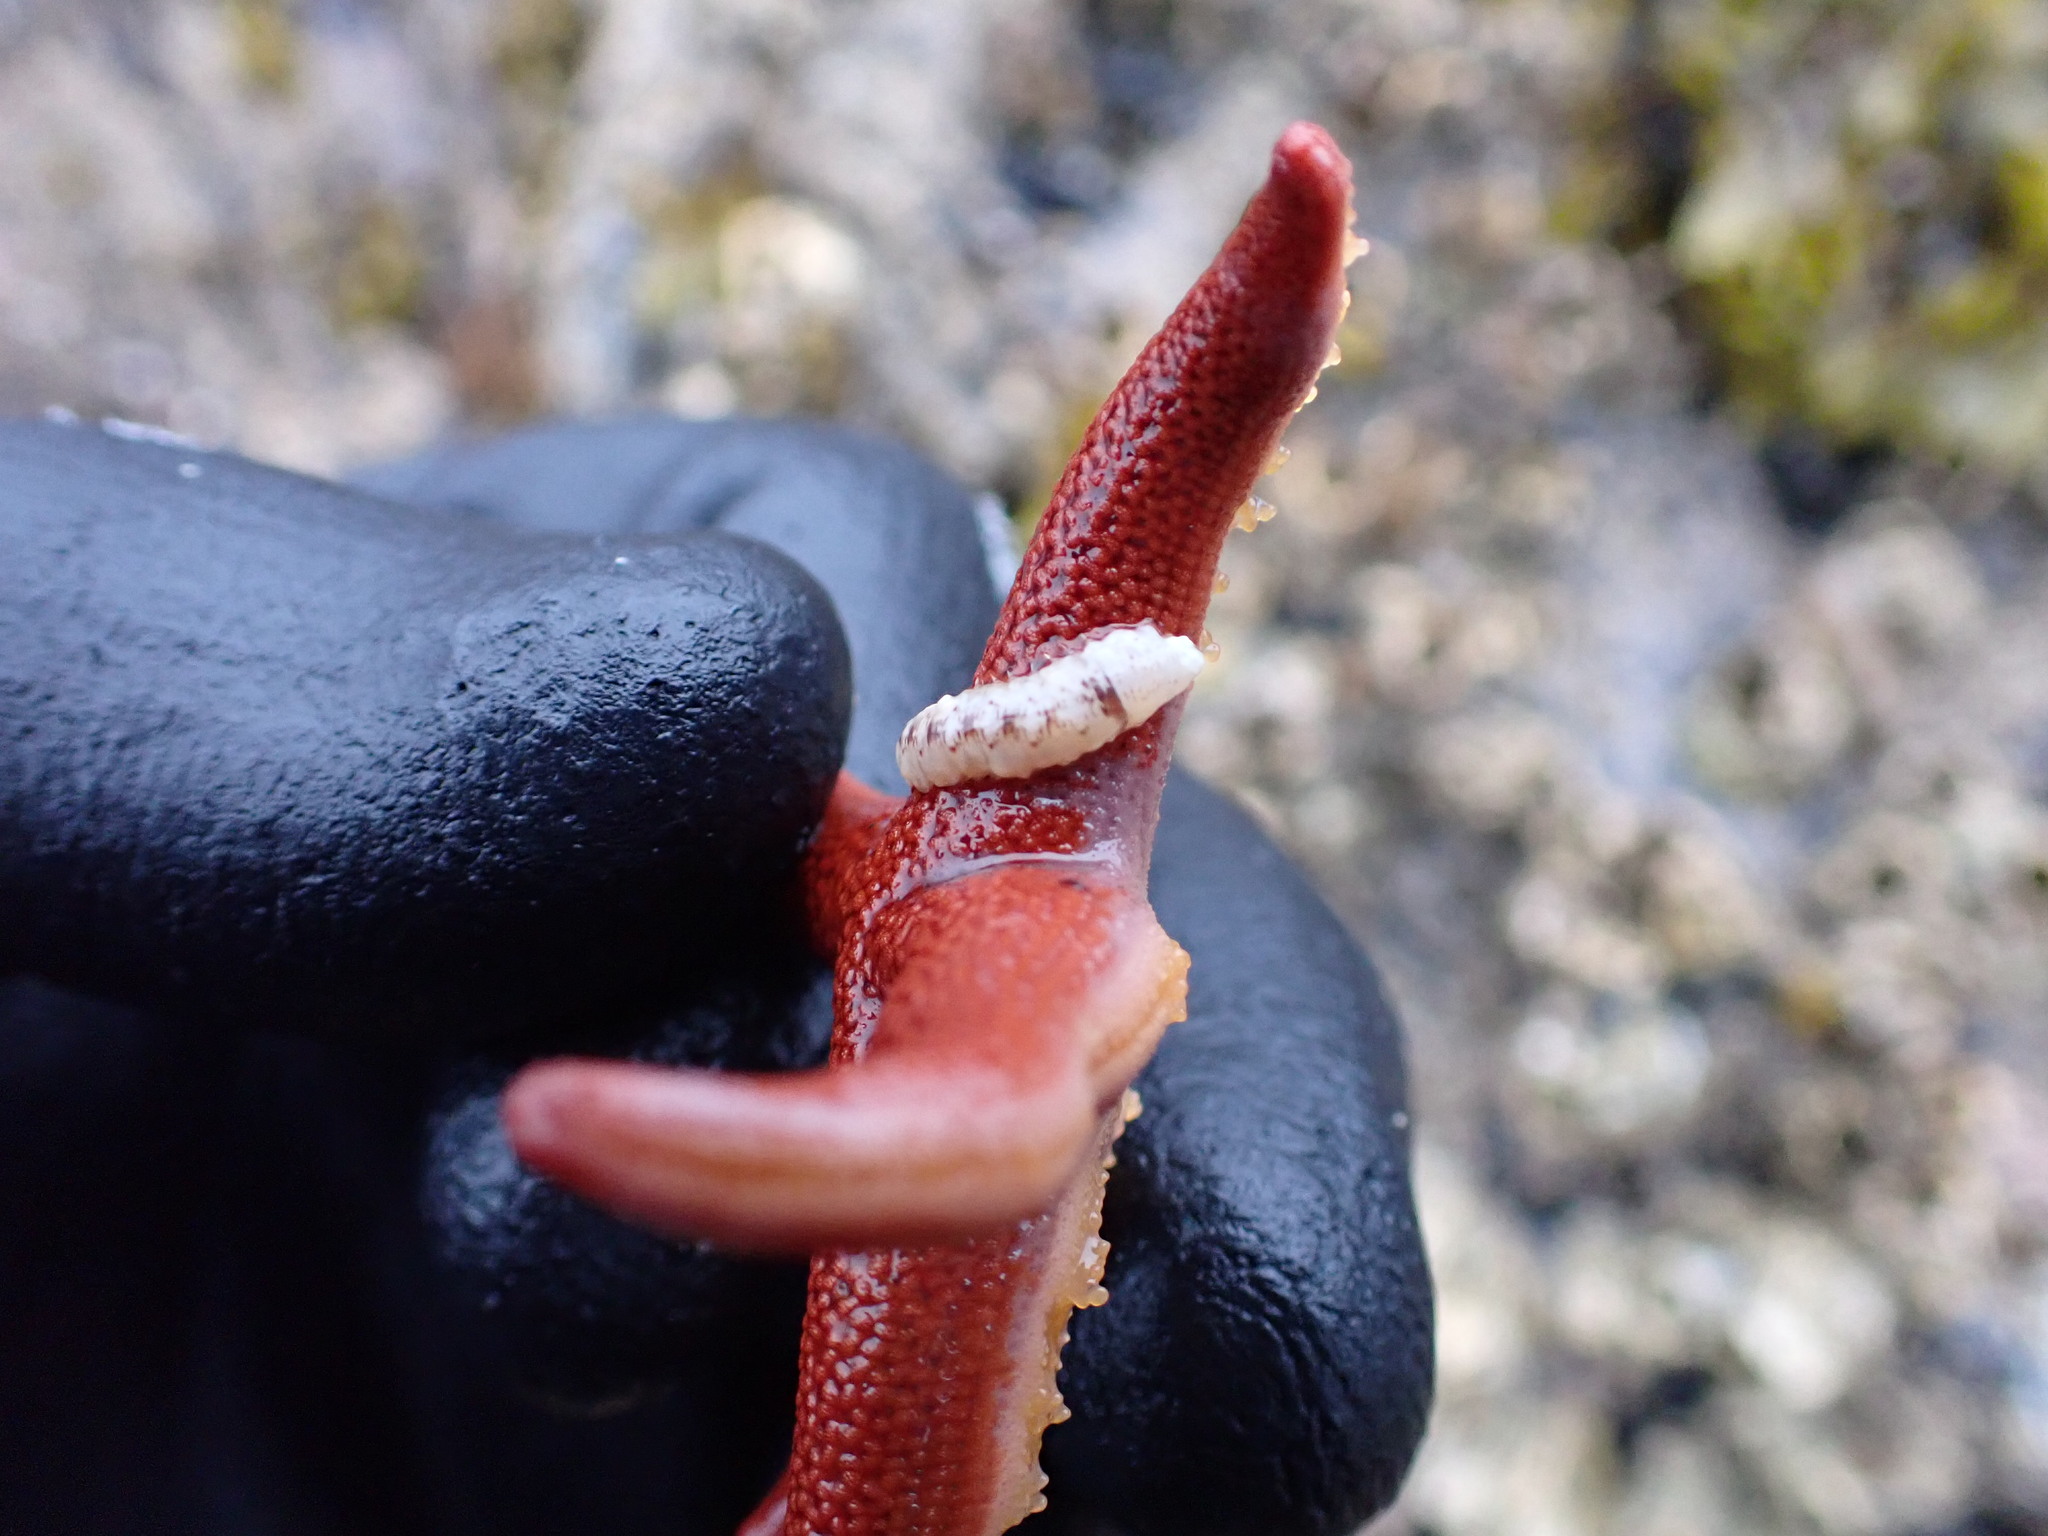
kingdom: Animalia
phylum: Annelida
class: Polychaeta
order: Phyllodocida
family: Polynoidae
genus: Arctonoe
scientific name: Arctonoe vittata
